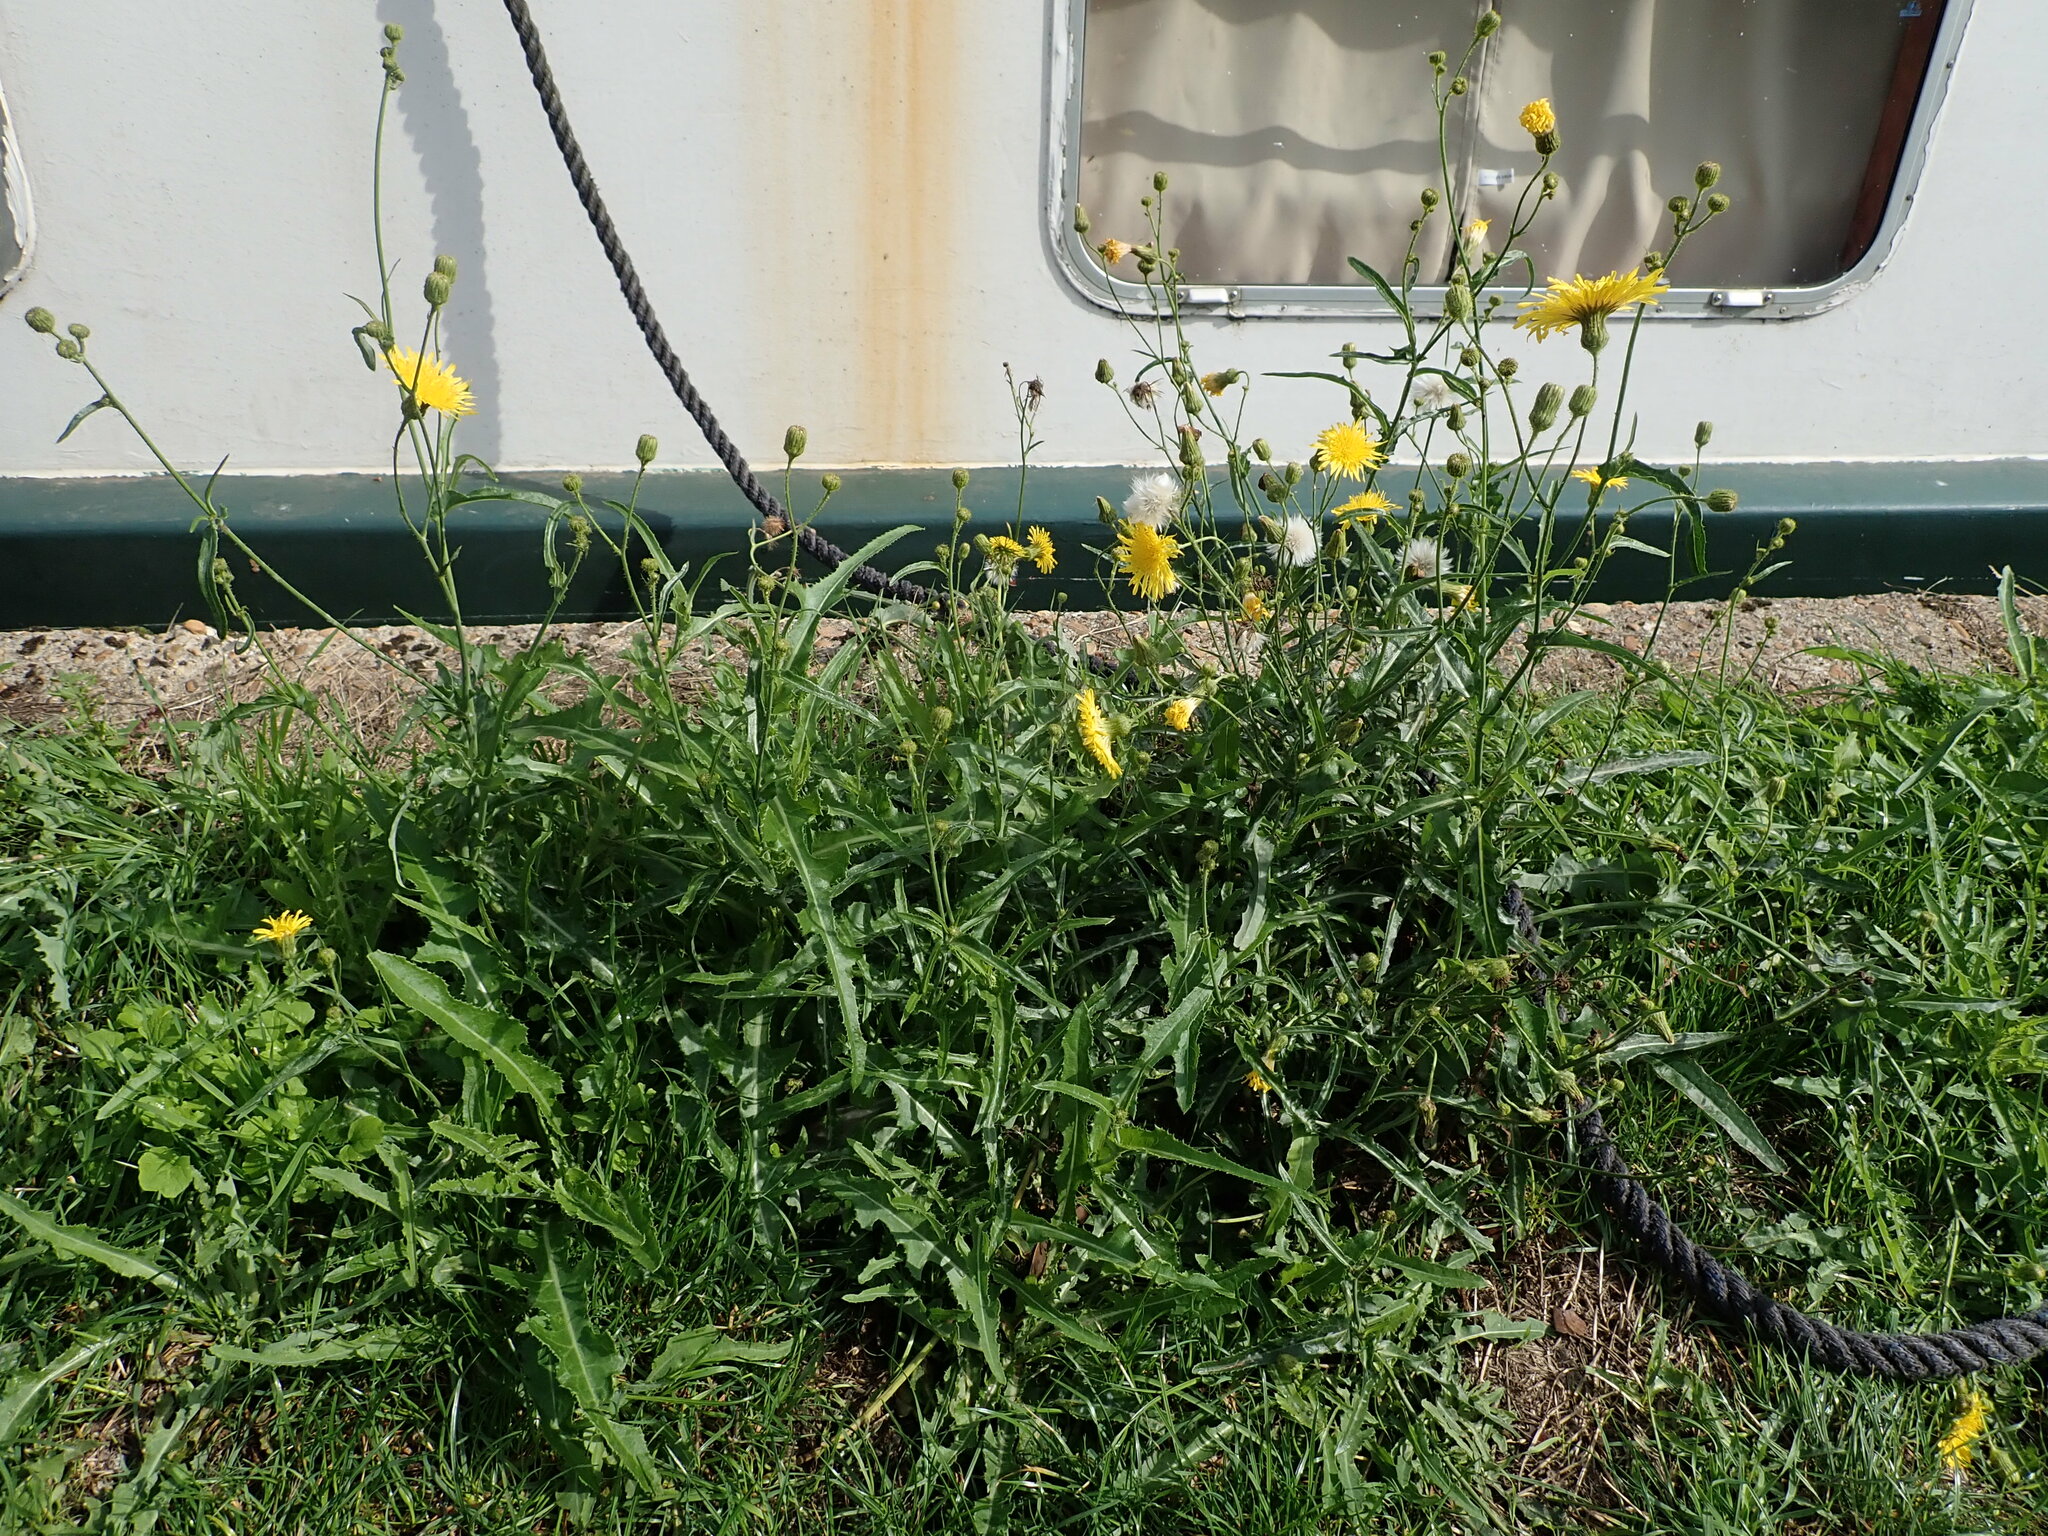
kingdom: Plantae
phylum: Tracheophyta
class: Magnoliopsida
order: Asterales
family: Asteraceae
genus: Sonchus
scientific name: Sonchus arvensis
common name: Perennial sow-thistle
